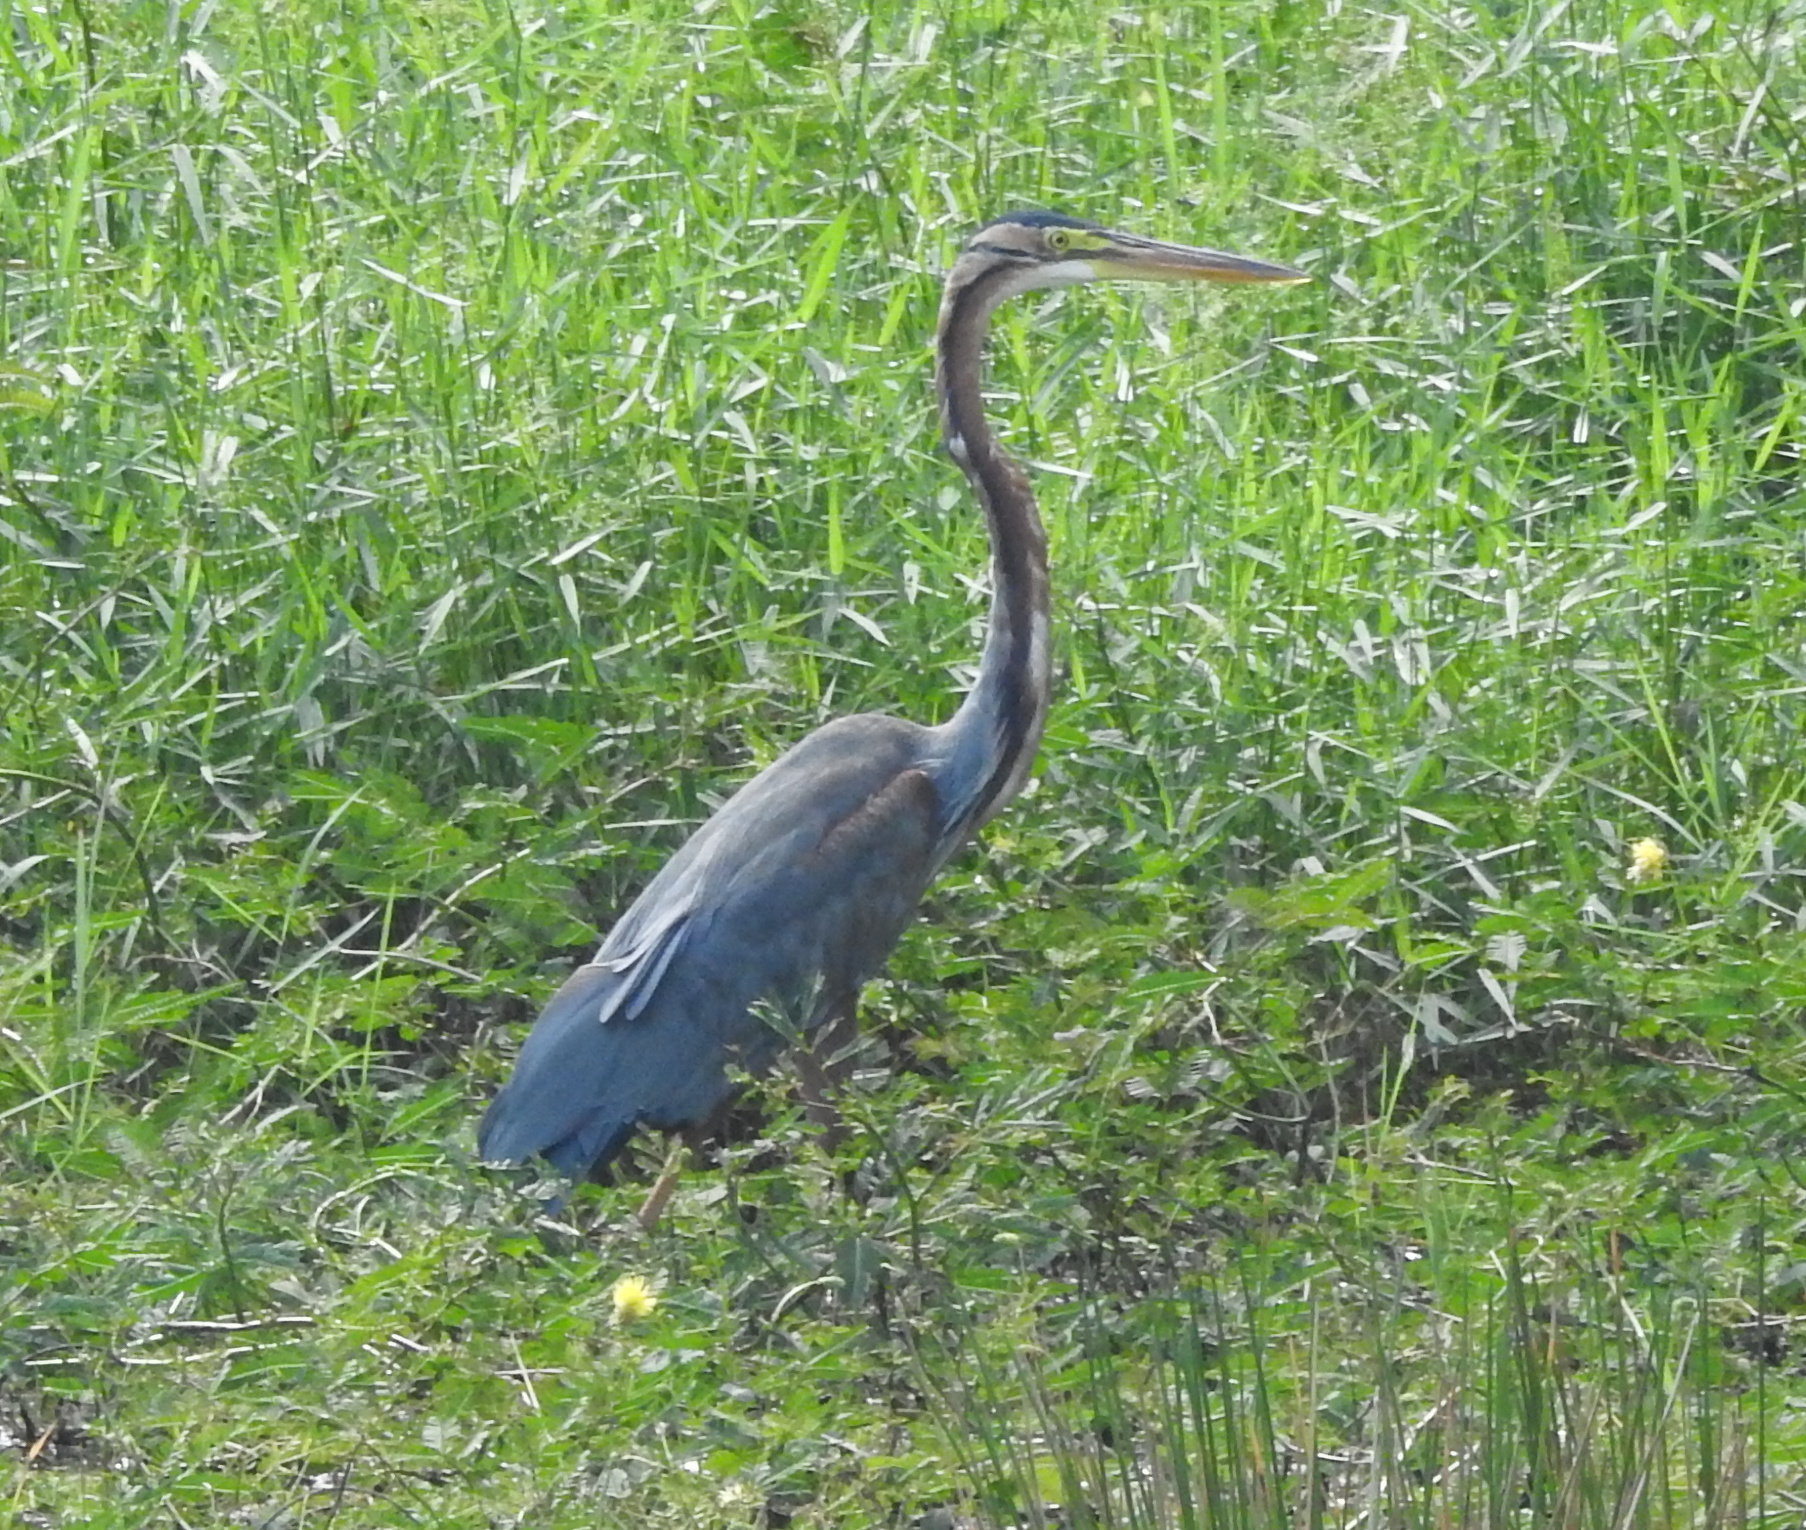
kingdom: Animalia
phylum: Chordata
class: Aves
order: Pelecaniformes
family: Ardeidae
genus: Ardea
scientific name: Ardea purpurea
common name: Purple heron
